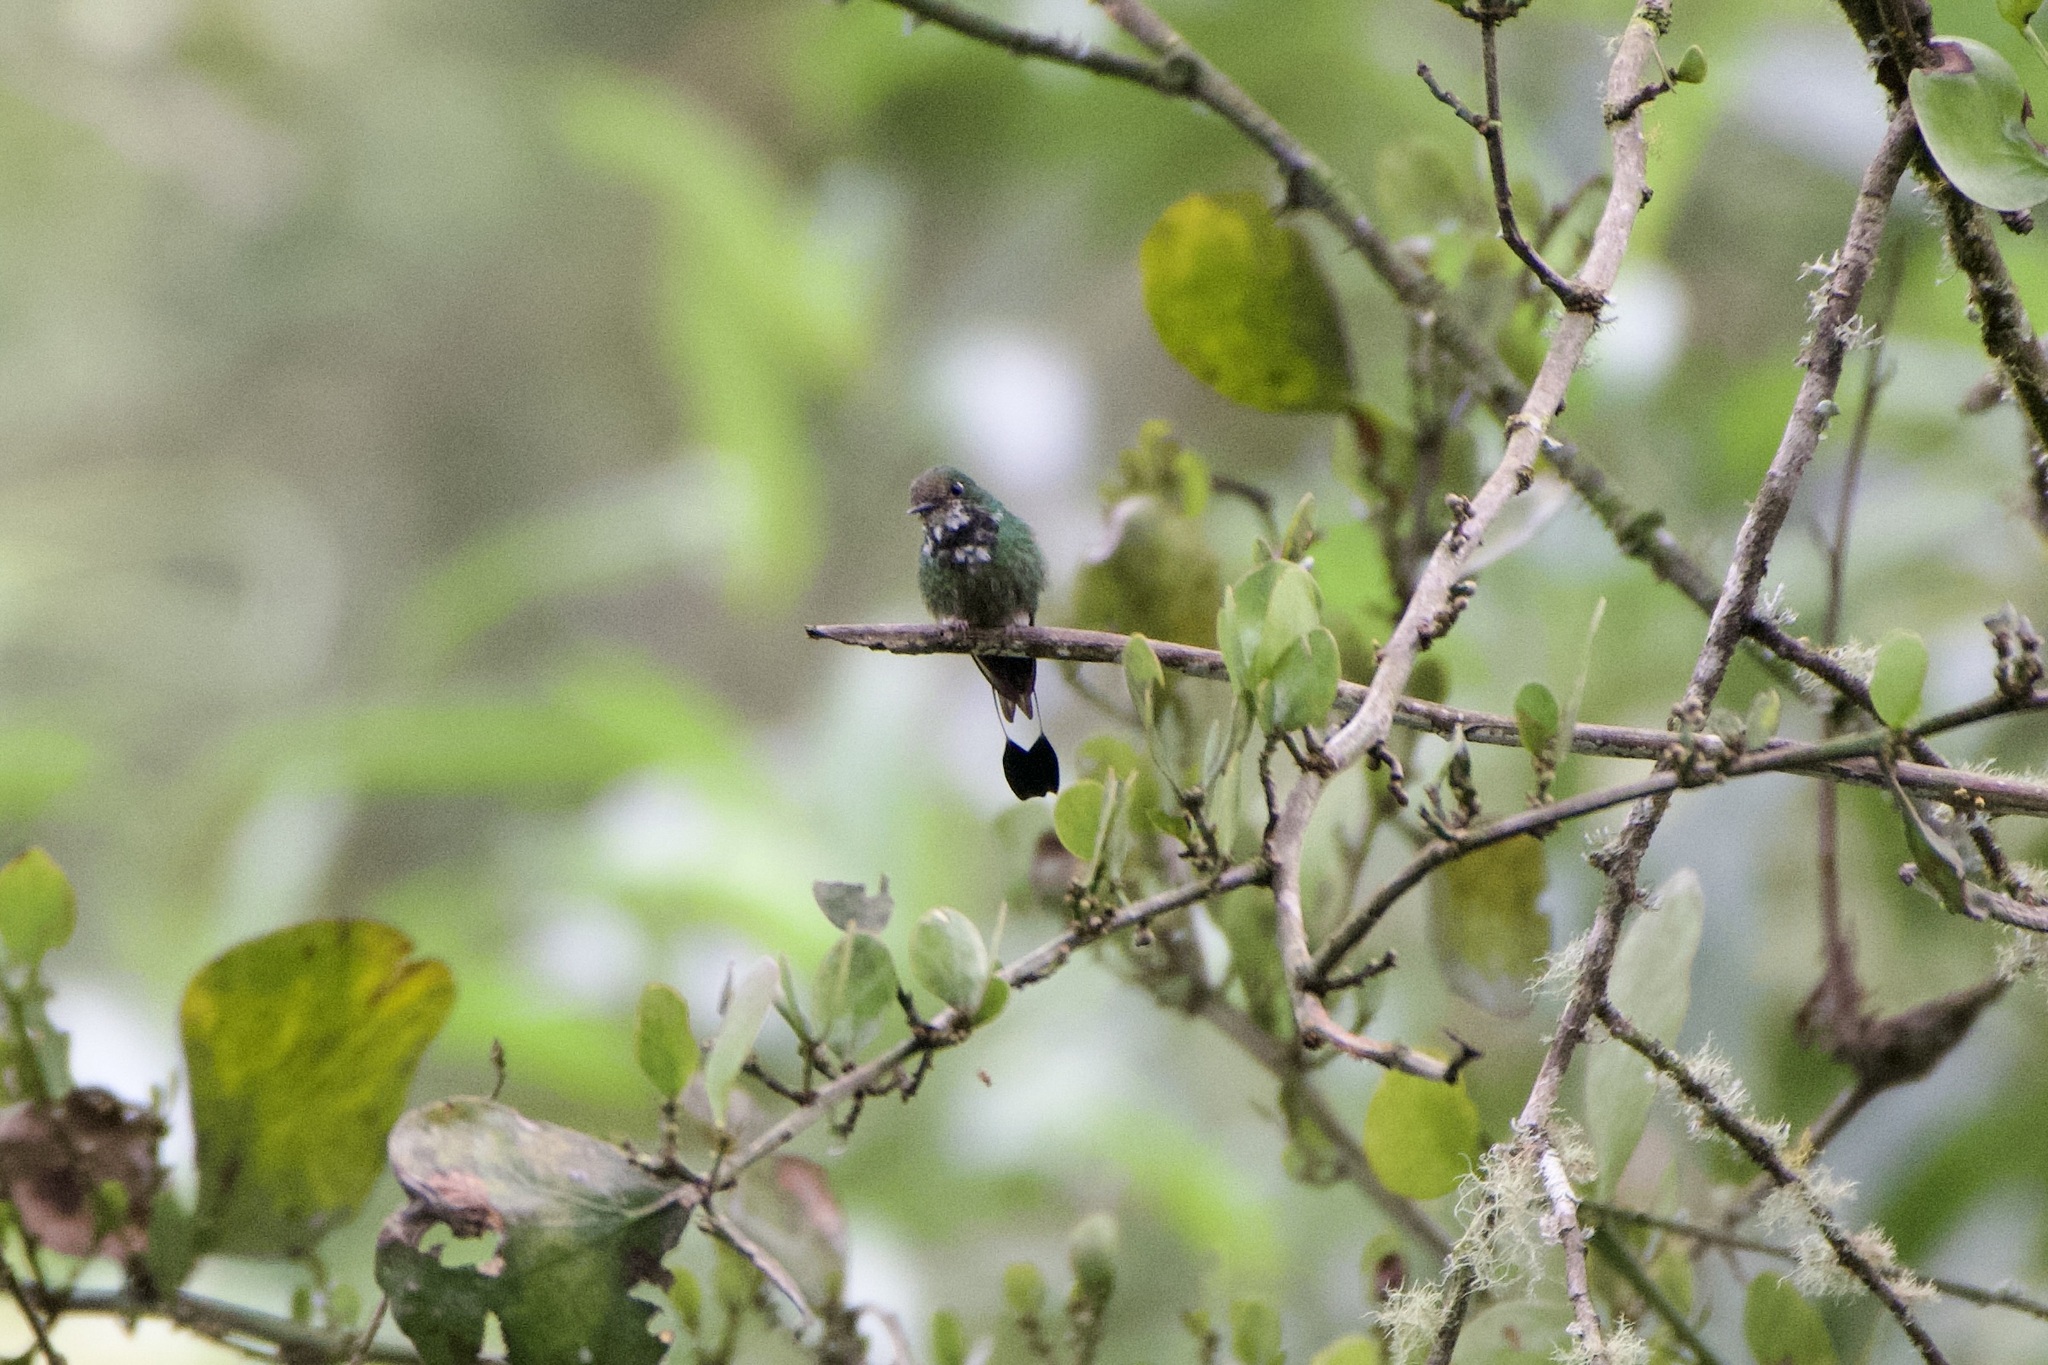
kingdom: Animalia
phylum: Chordata
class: Aves
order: Apodiformes
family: Trochilidae
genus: Ocreatus
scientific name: Ocreatus underwoodii
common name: Booted racket-tail
